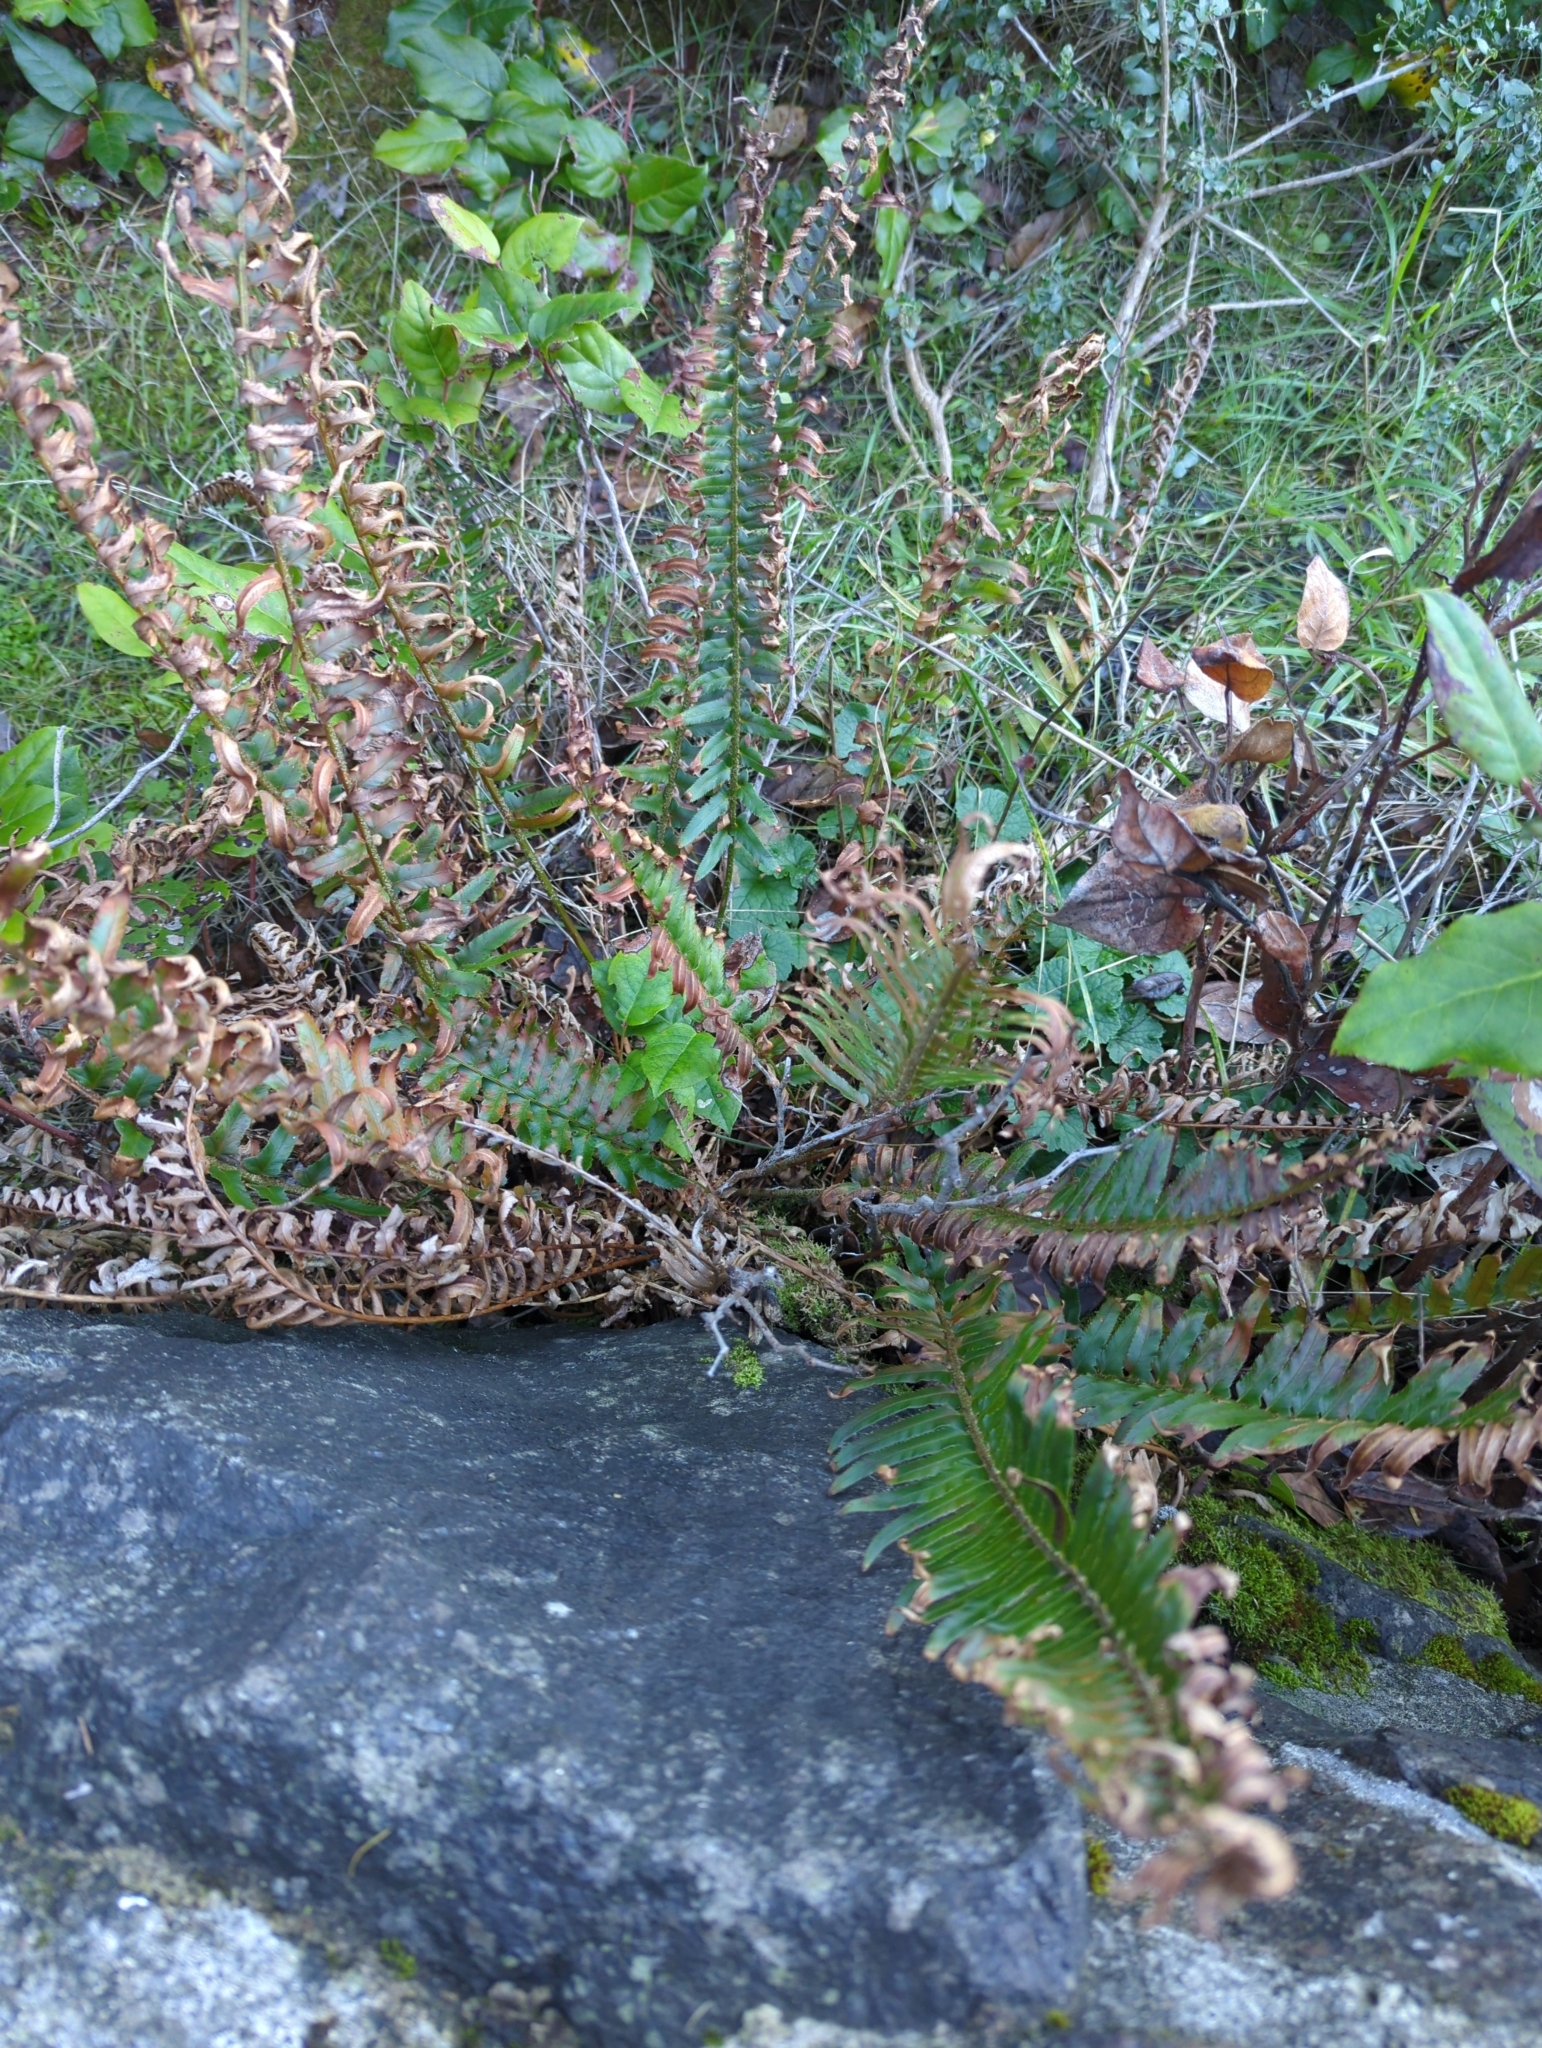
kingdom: Plantae
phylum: Tracheophyta
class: Polypodiopsida
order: Polypodiales
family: Dryopteridaceae
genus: Polystichum
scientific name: Polystichum munitum
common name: Western sword-fern
